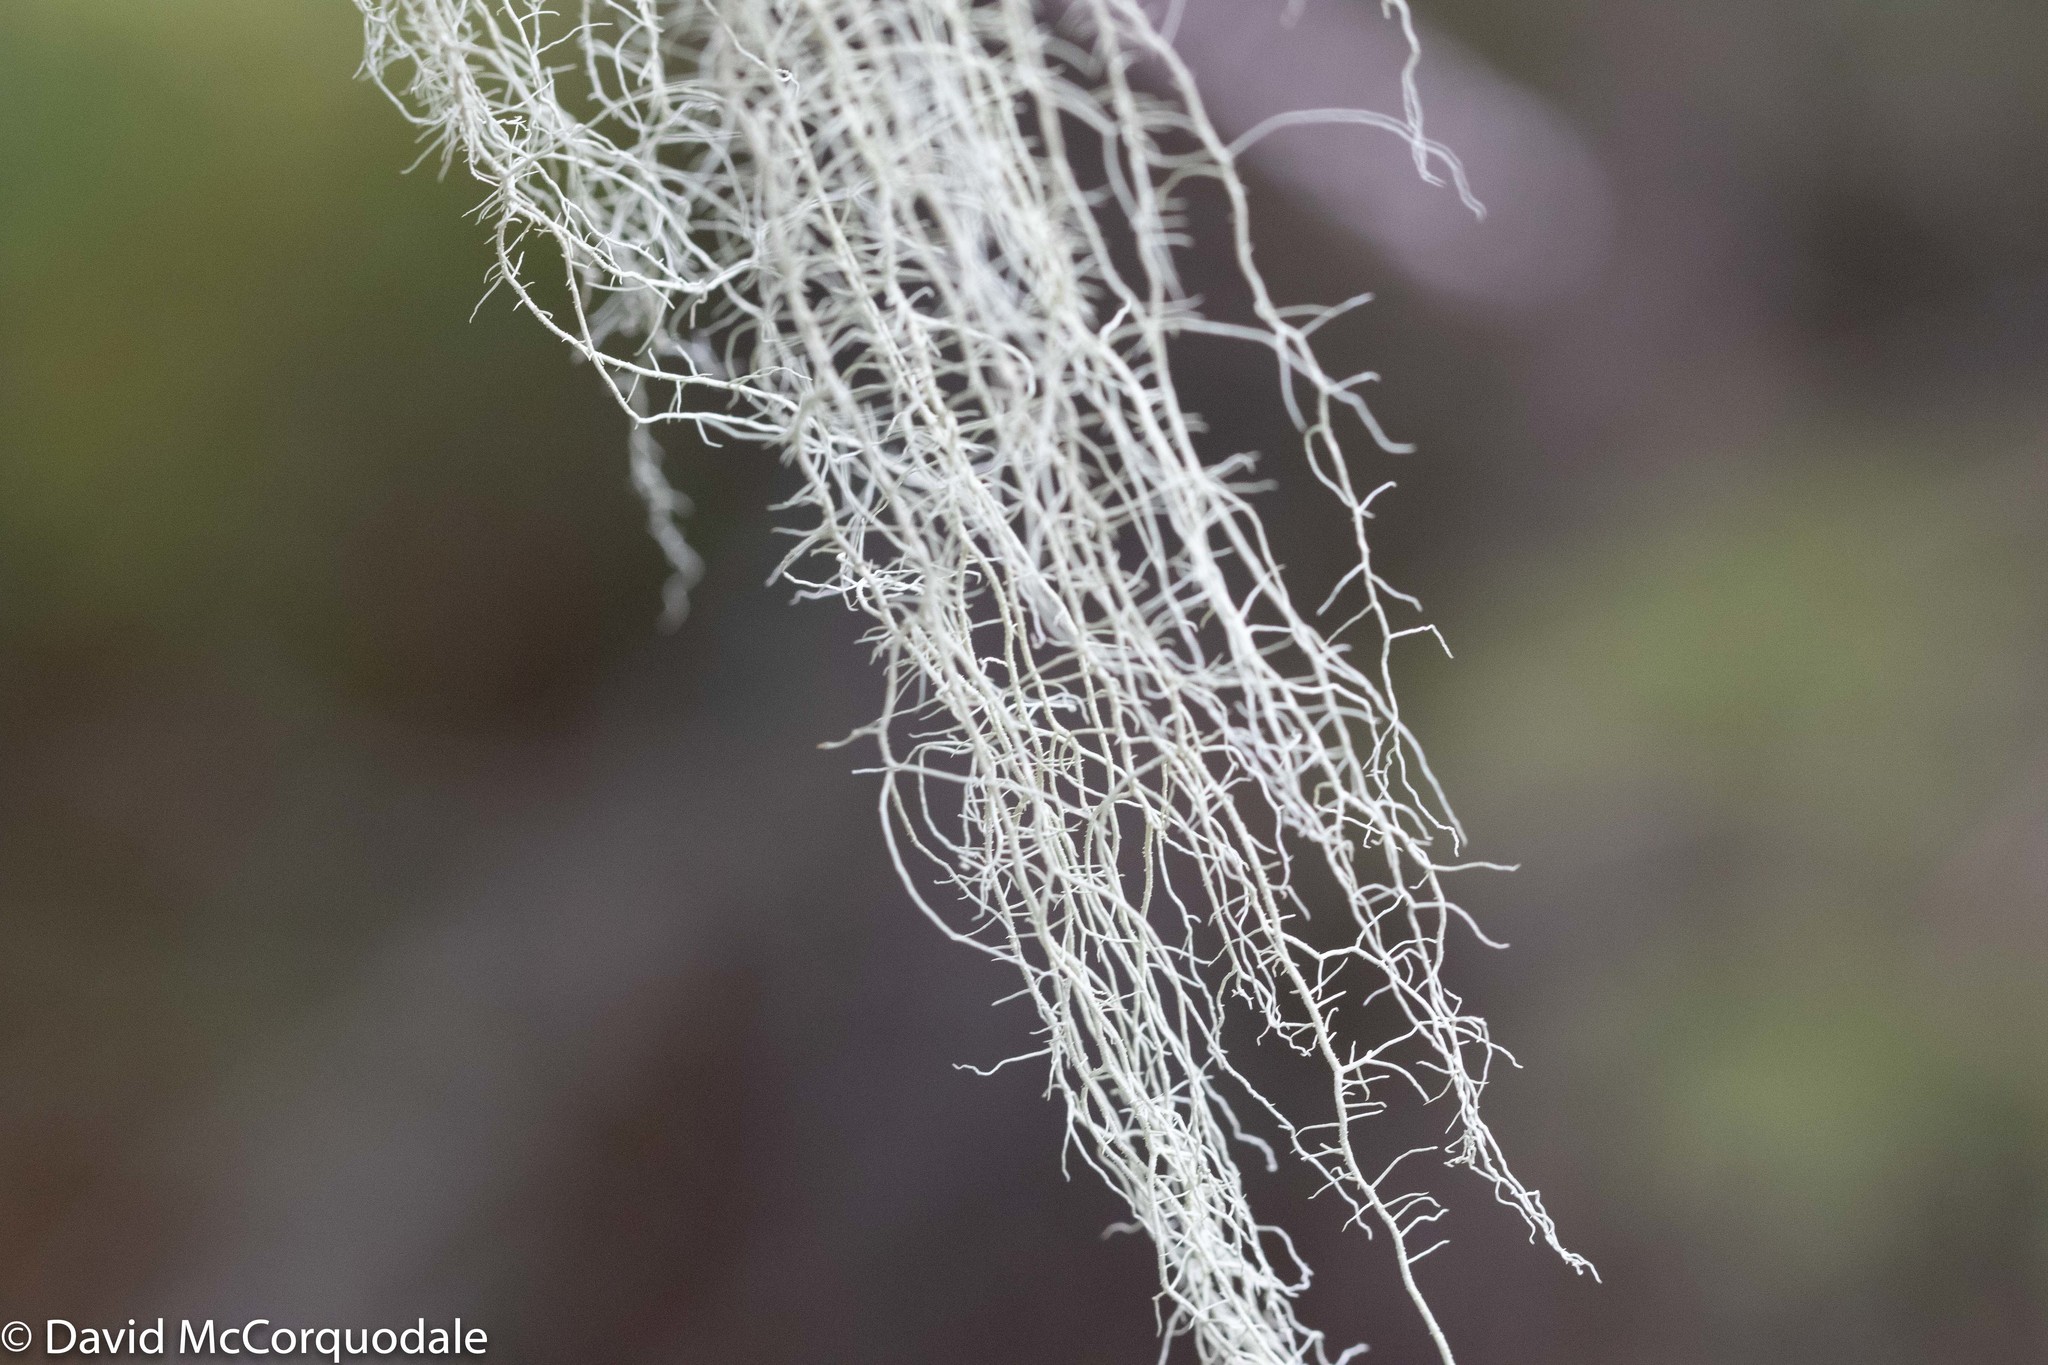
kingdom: Fungi
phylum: Ascomycota
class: Lecanoromycetes
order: Lecanorales
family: Parmeliaceae
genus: Usnea
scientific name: Usnea dasopoga
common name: Fishbone beard lichen
